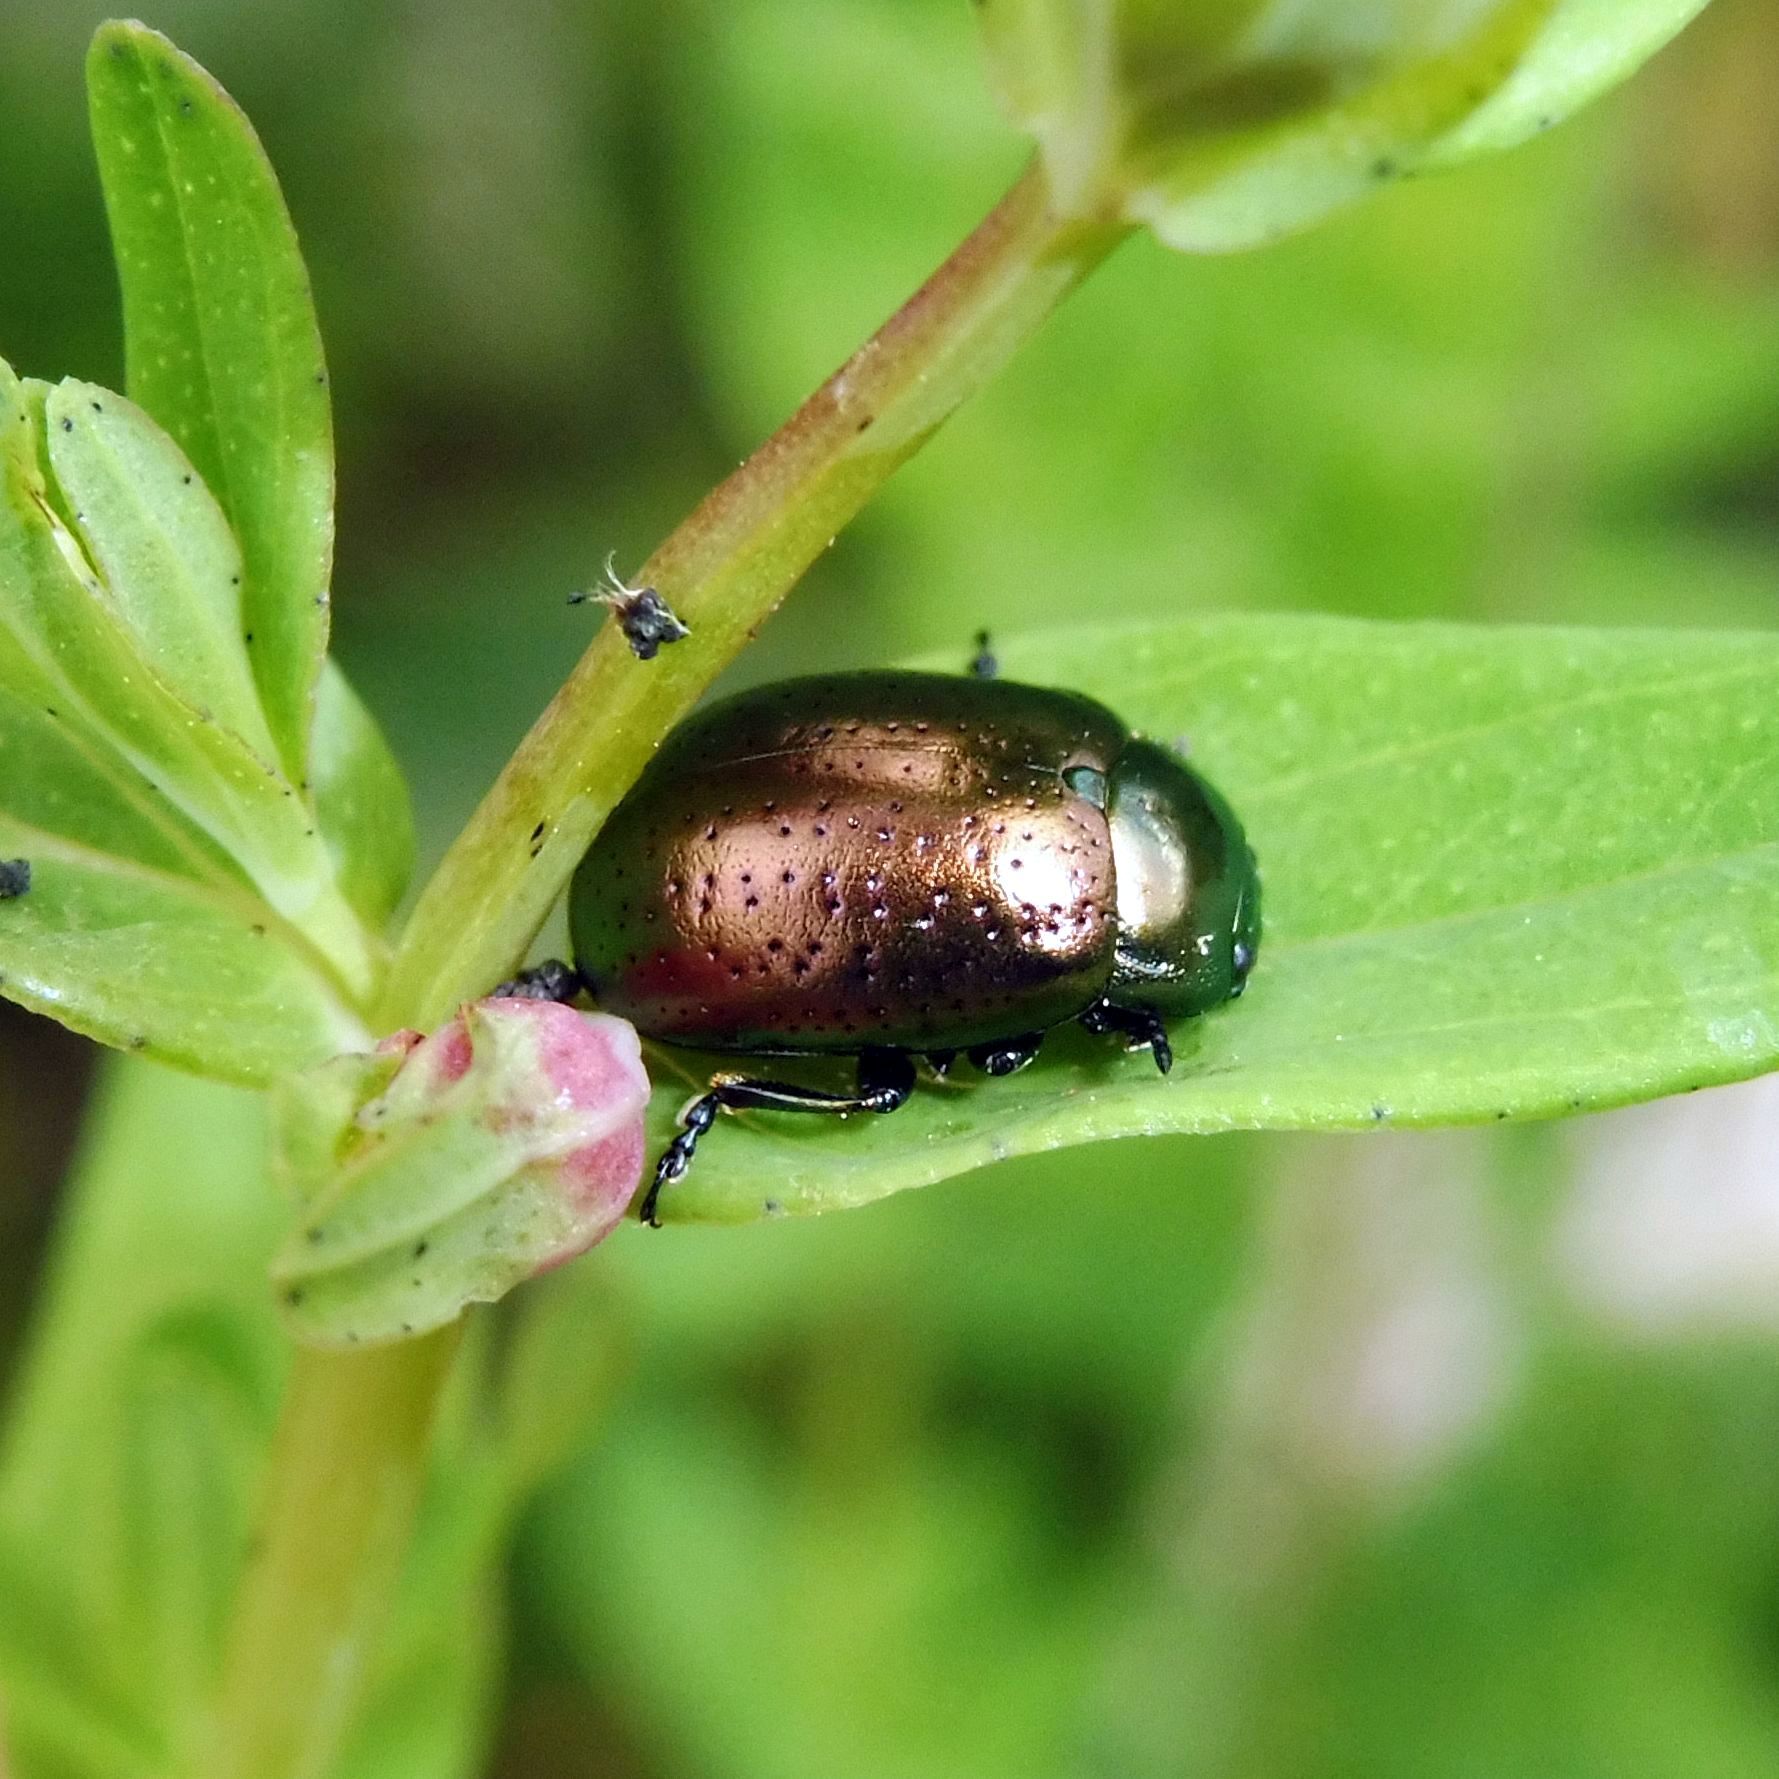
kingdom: Animalia
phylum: Arthropoda
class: Insecta
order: Coleoptera
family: Chrysomelidae
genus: Chrysolina
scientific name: Chrysolina hyperici
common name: St. johnswort beetle
